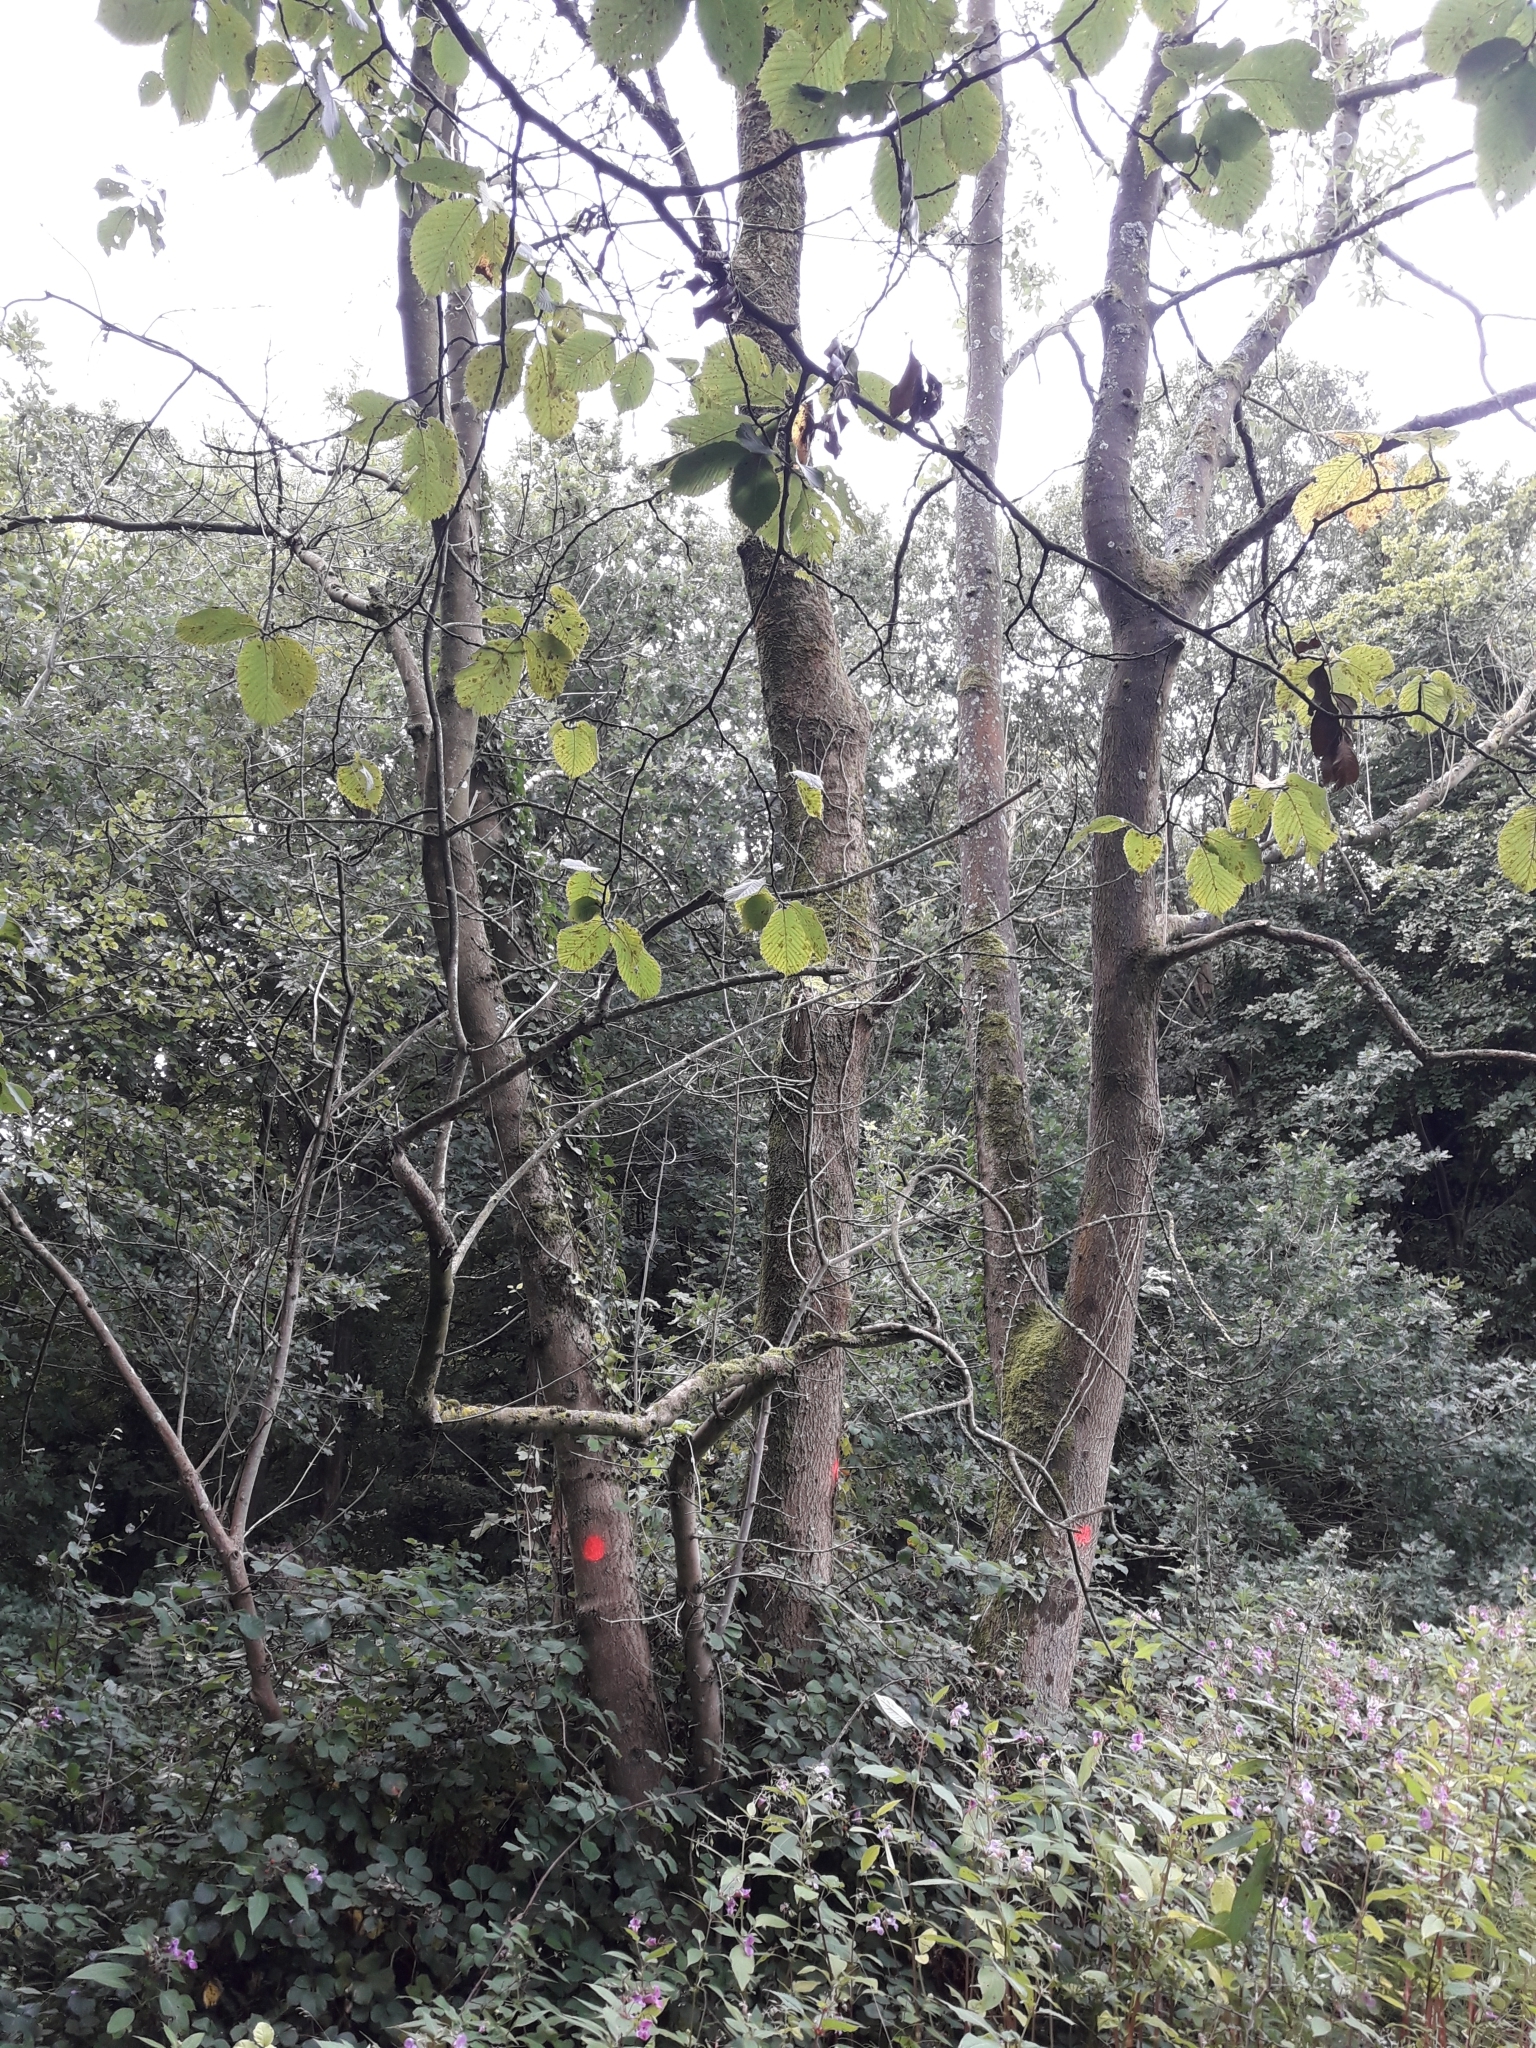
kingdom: Plantae
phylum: Tracheophyta
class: Magnoliopsida
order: Lamiales
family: Oleaceae
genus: Fraxinus
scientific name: Fraxinus excelsior
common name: European ash
